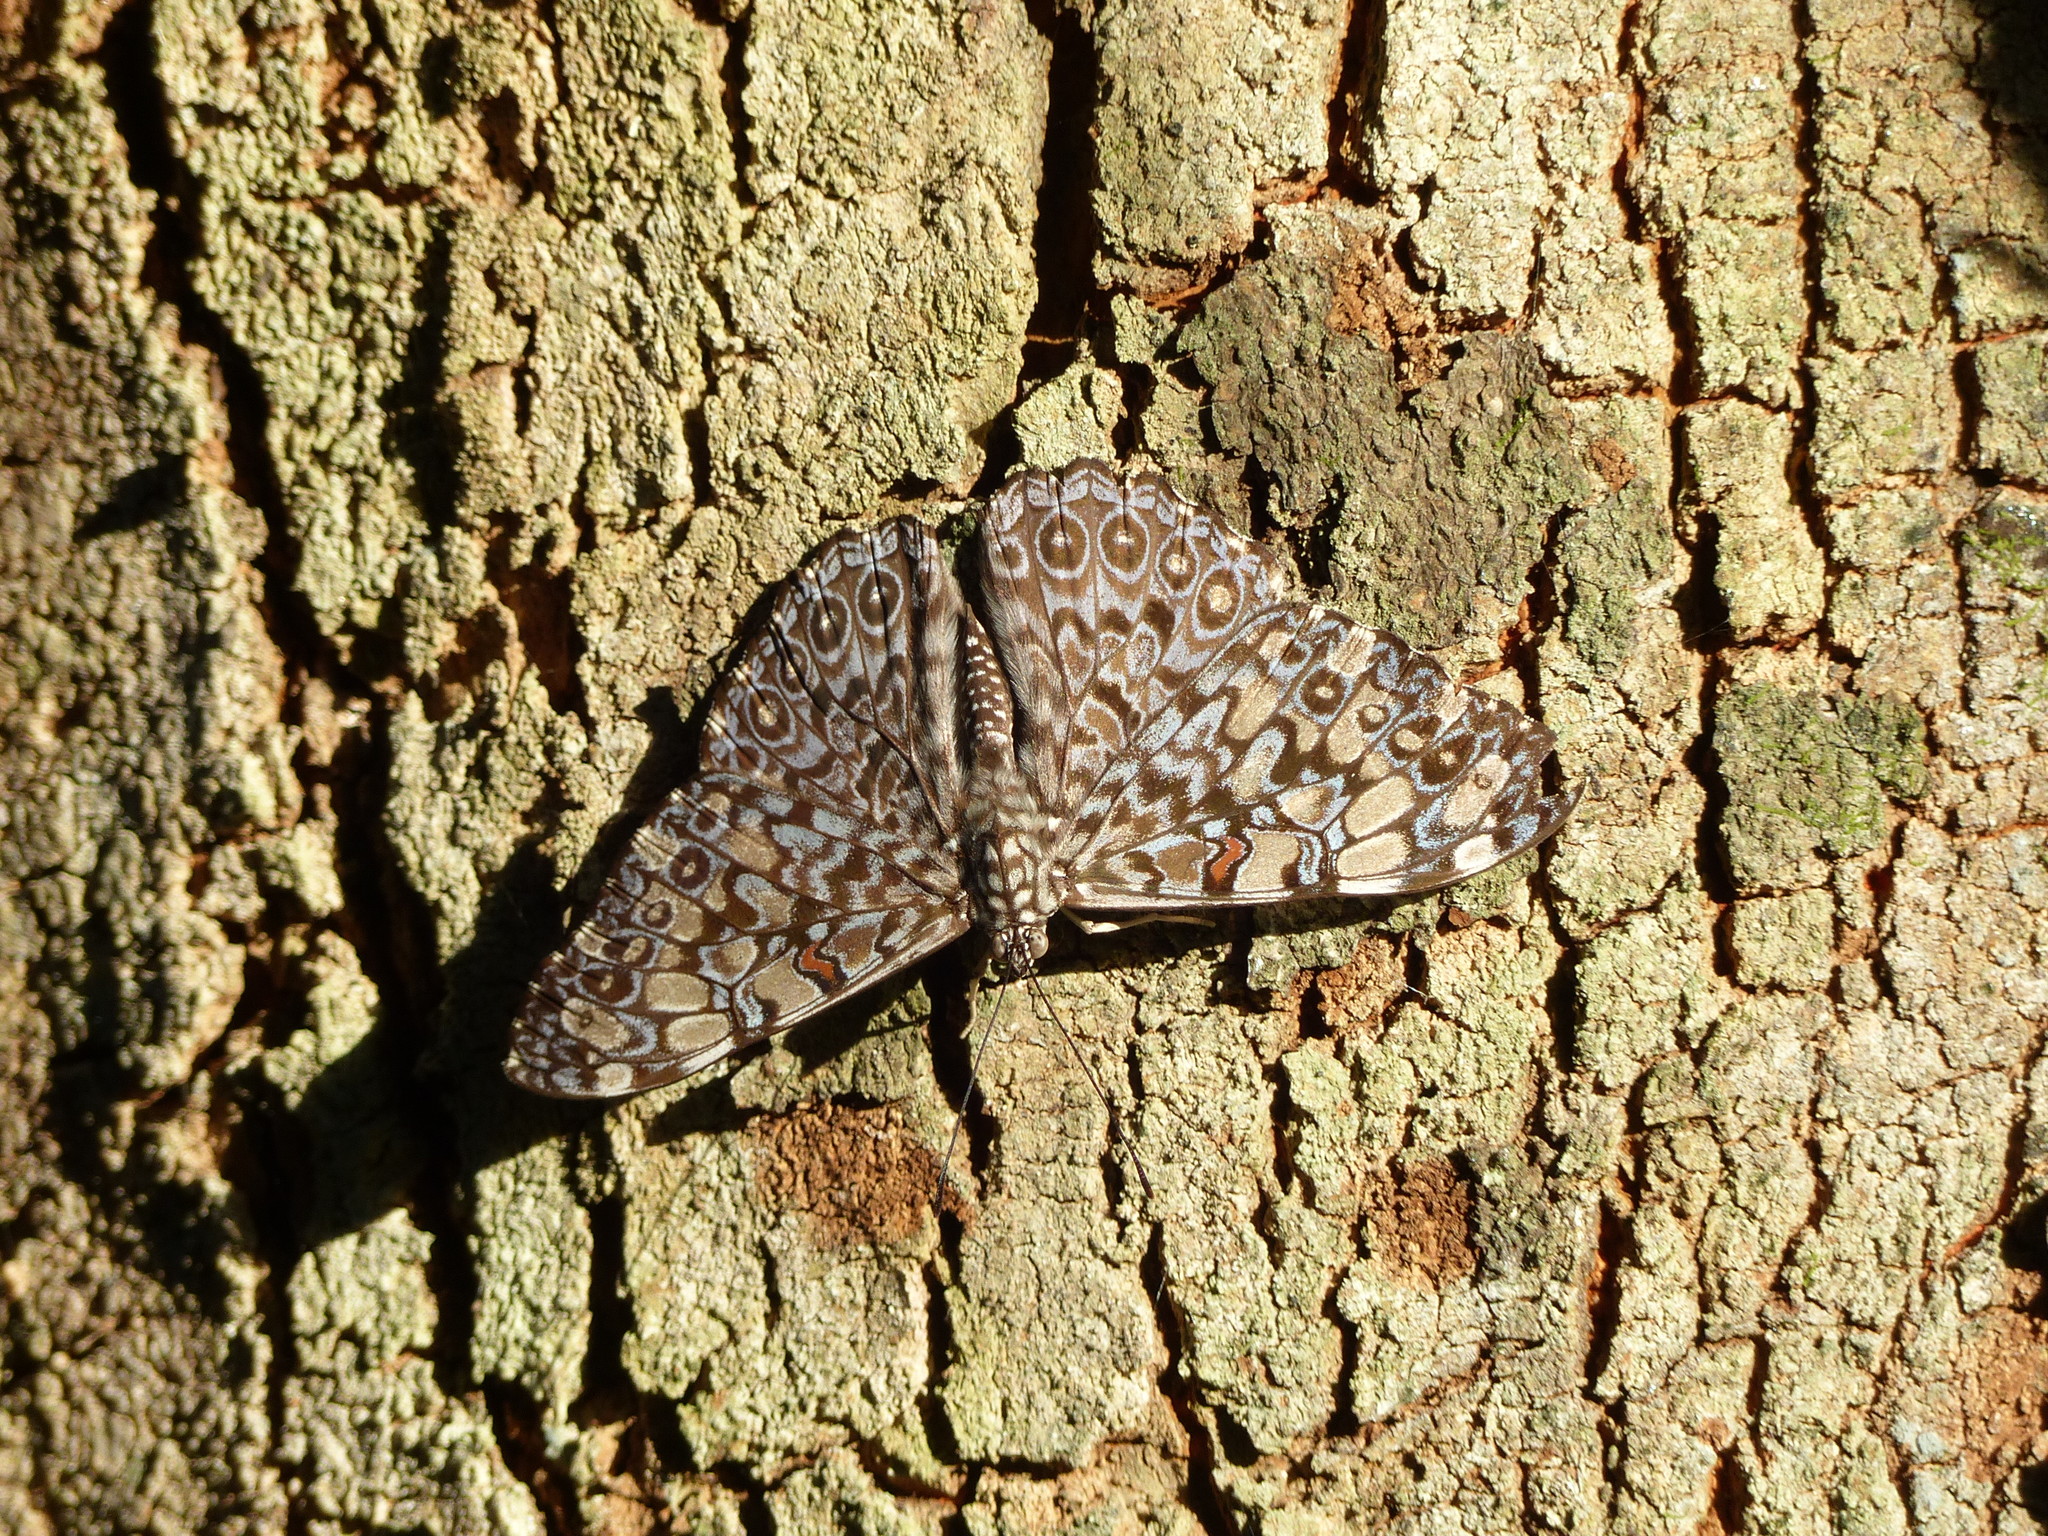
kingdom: Animalia
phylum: Arthropoda
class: Insecta
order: Lepidoptera
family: Nymphalidae
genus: Hamadryas
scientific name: Hamadryas feronia
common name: Variable cracker
